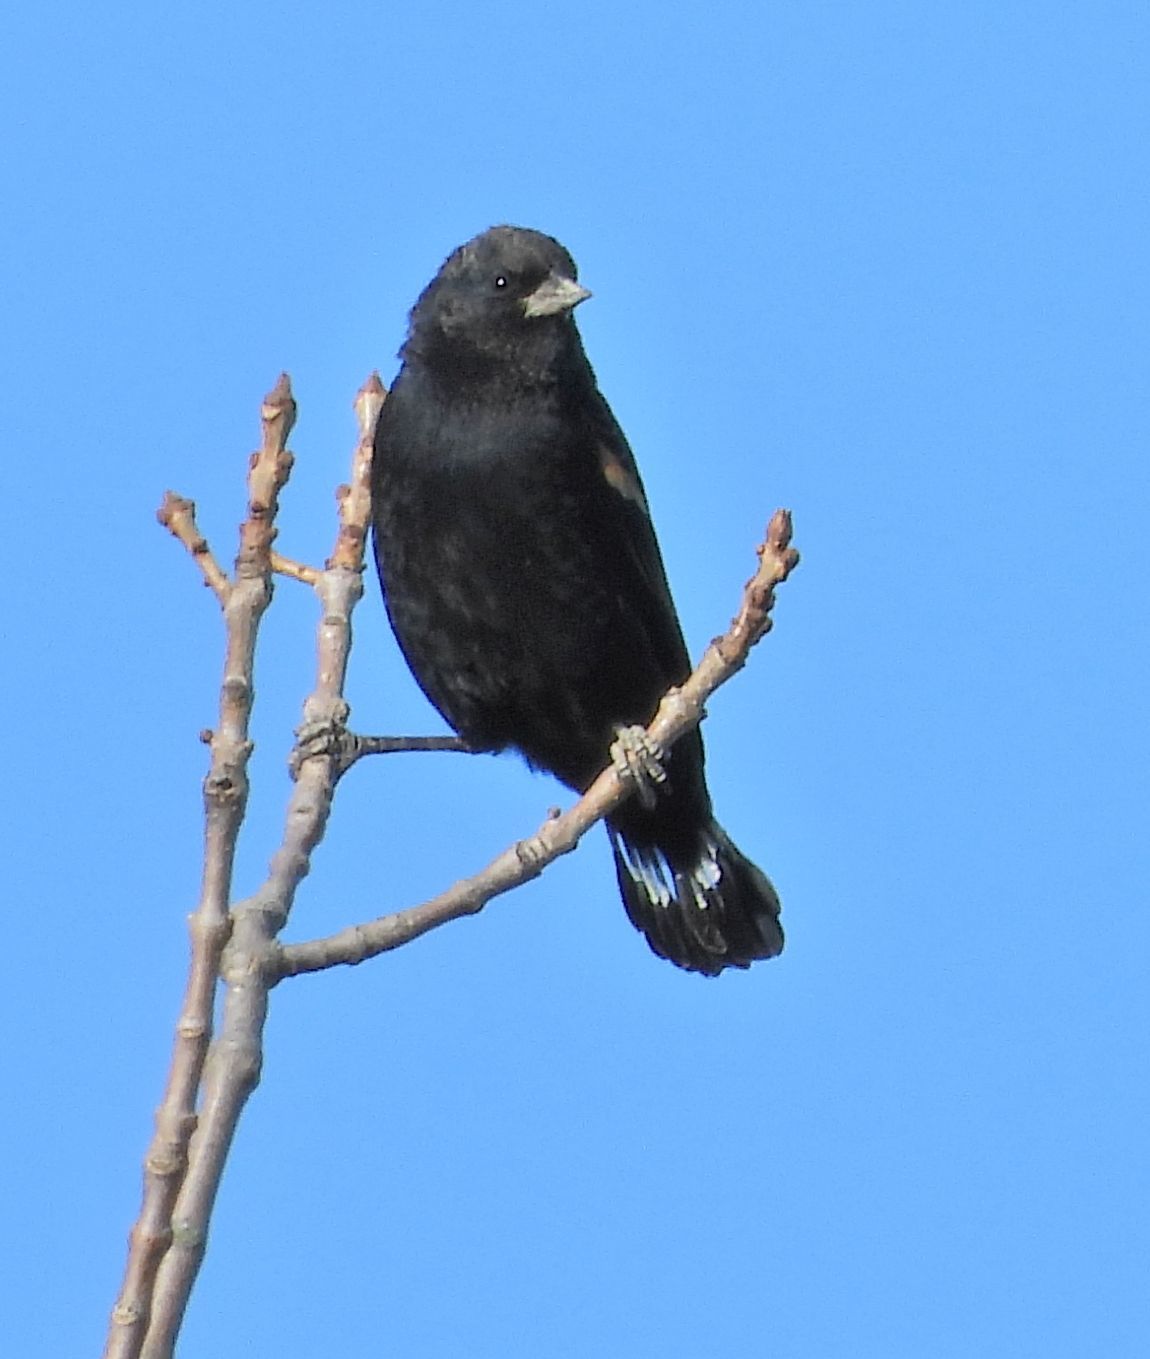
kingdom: Animalia
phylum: Chordata
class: Aves
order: Passeriformes
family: Icteridae
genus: Agelaius
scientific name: Agelaius phoeniceus
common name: Red-winged blackbird
